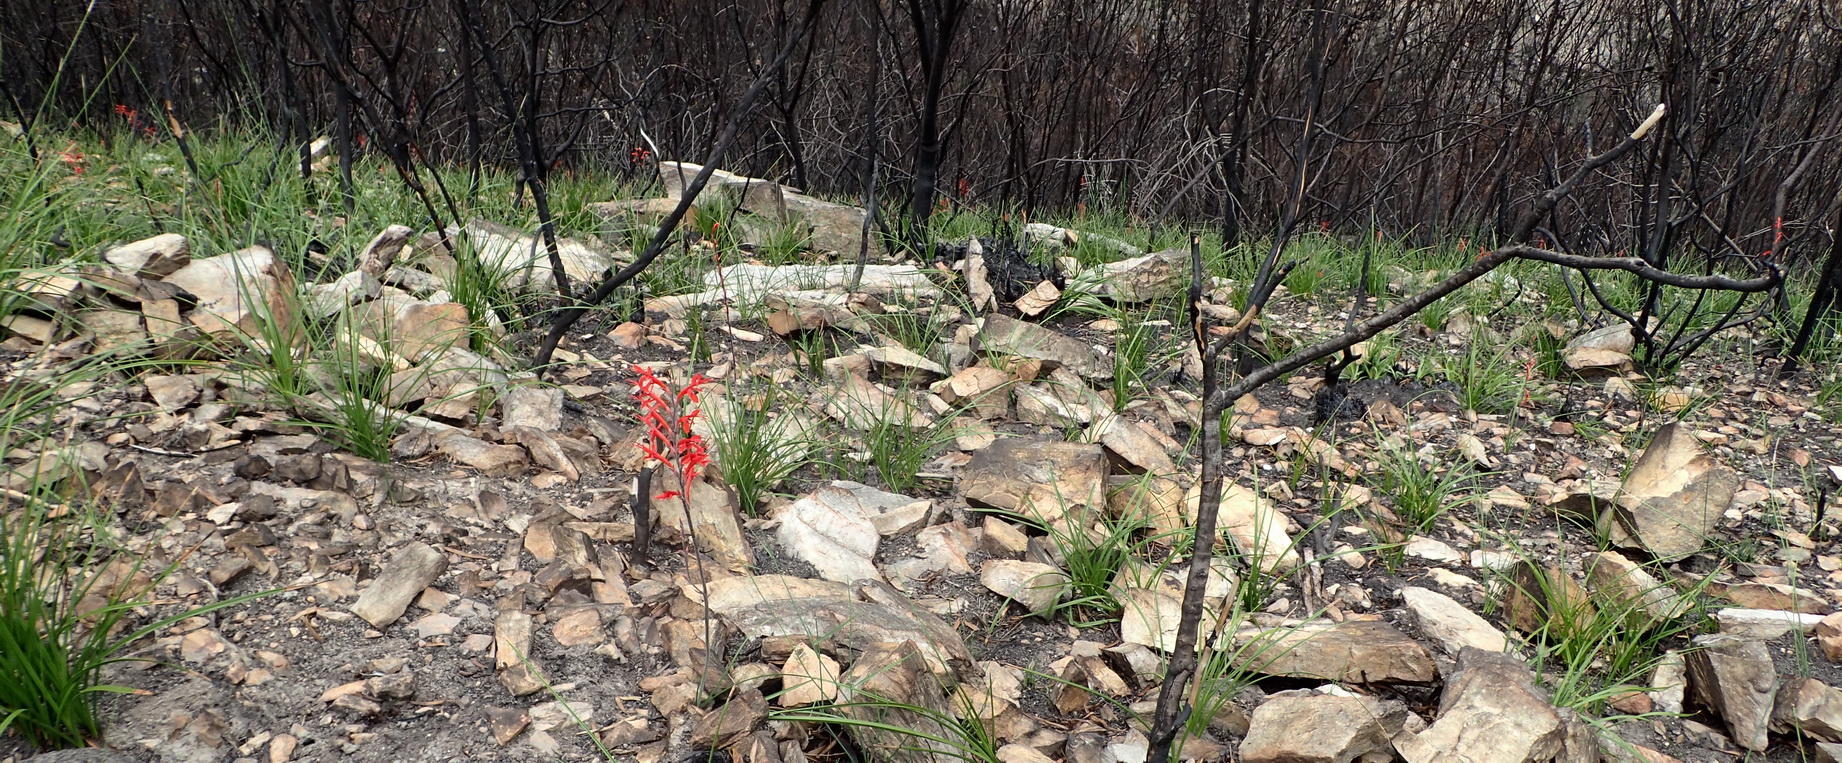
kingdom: Plantae
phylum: Tracheophyta
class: Liliopsida
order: Asparagales
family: Iridaceae
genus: Tritoniopsis
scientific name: Tritoniopsis caffra
